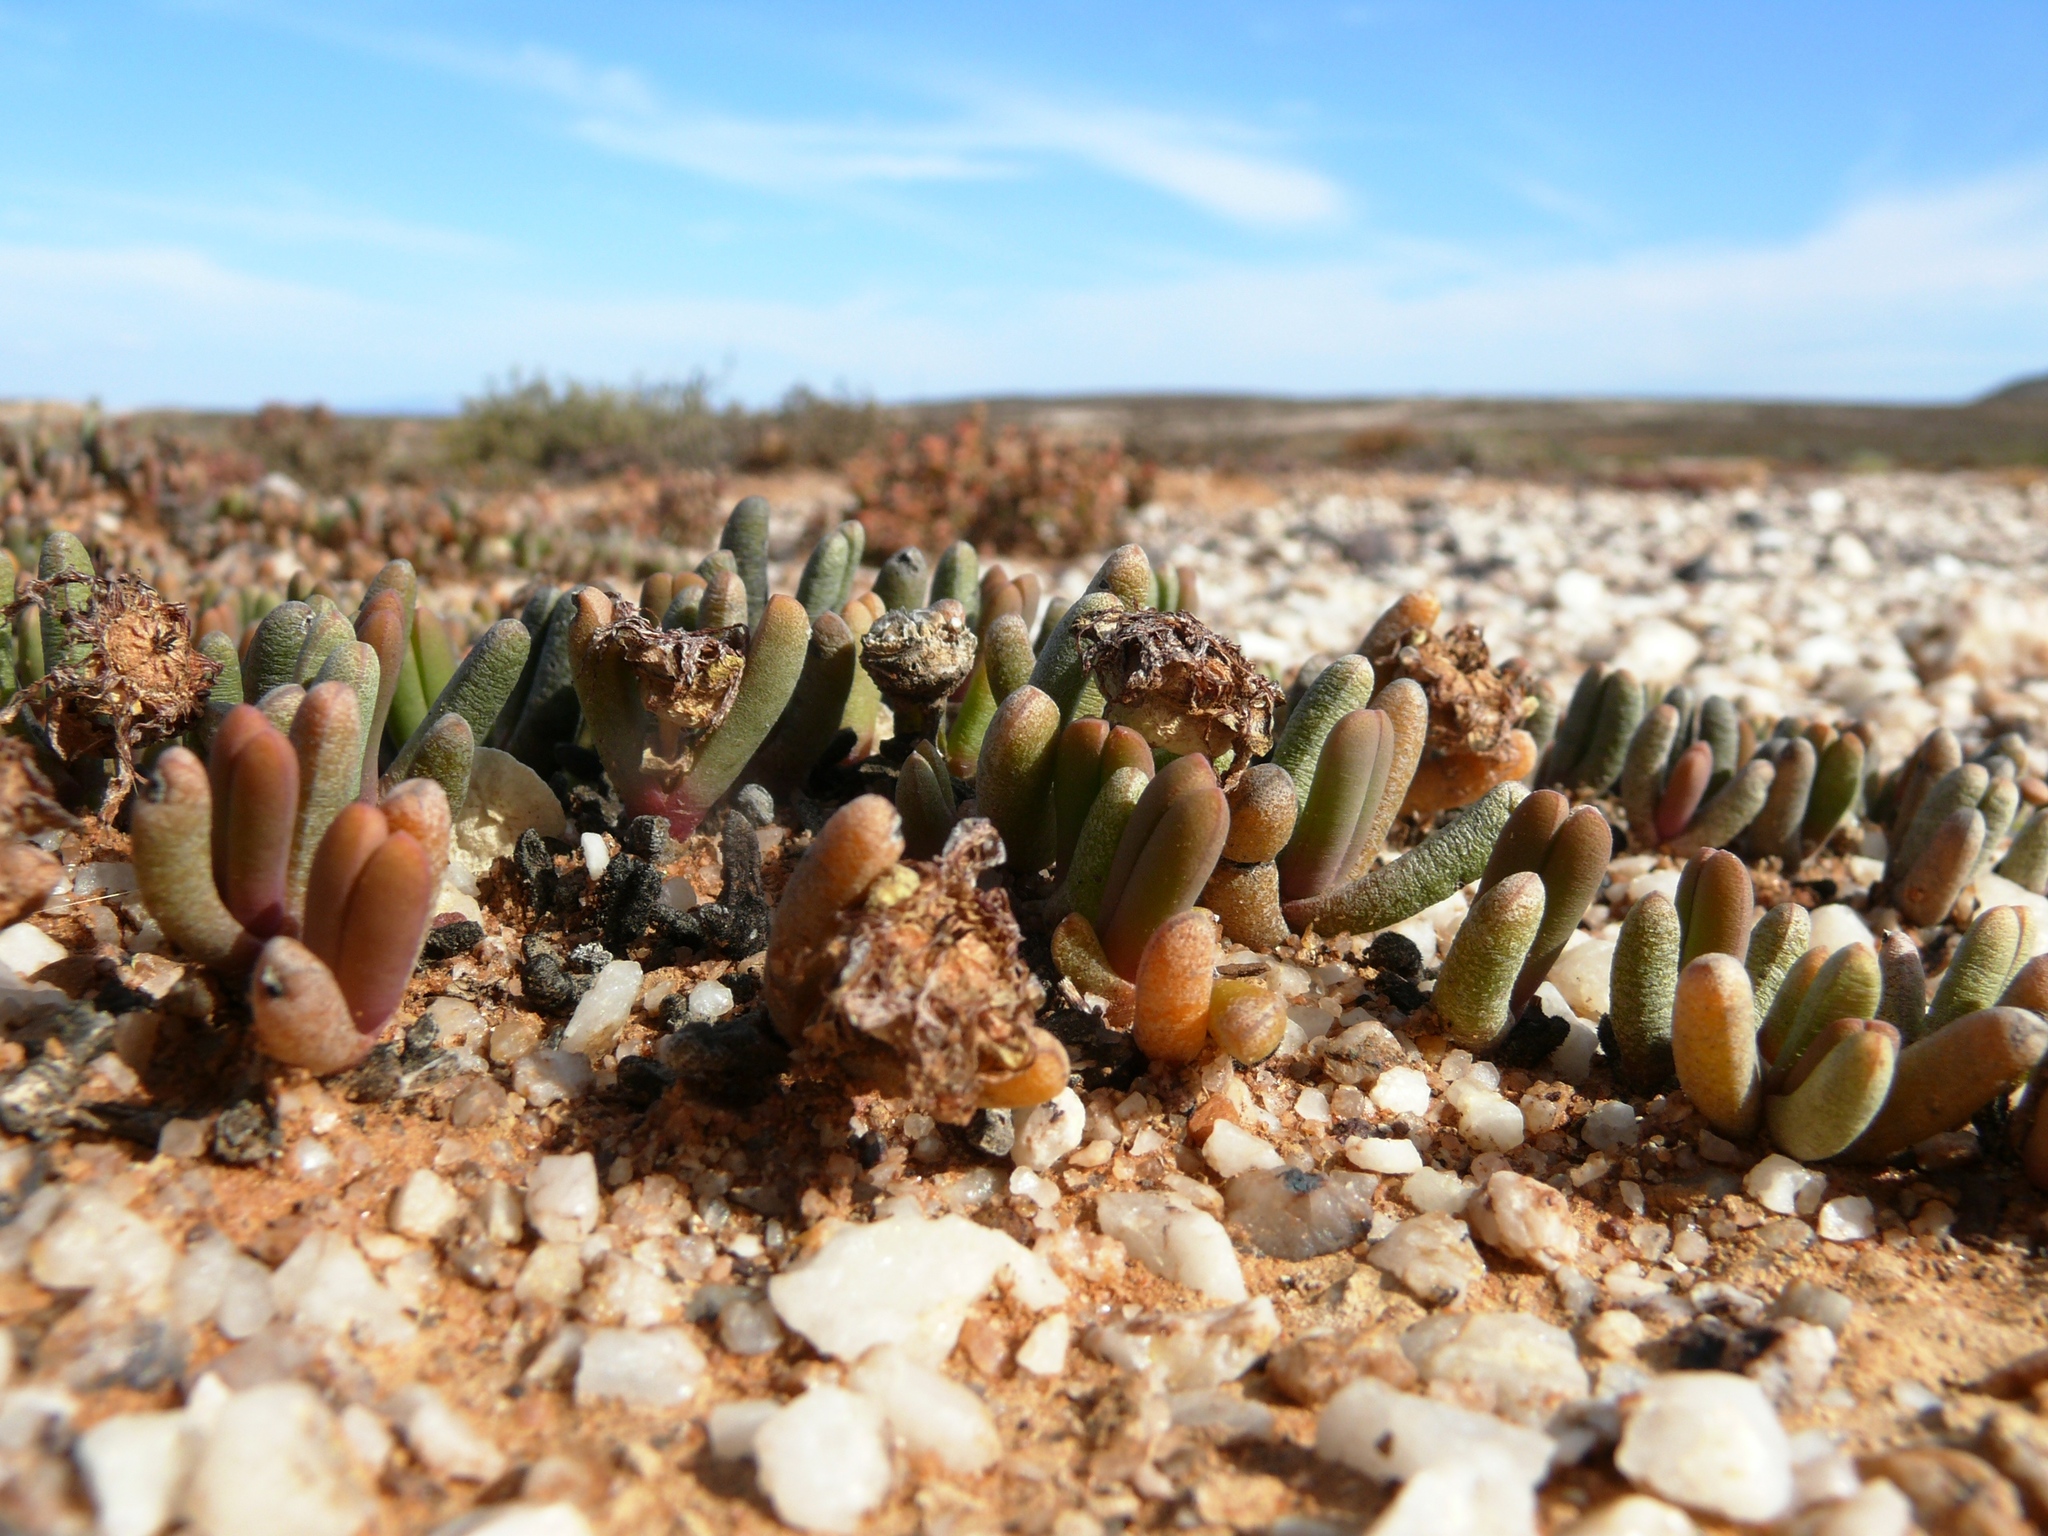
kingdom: Plantae
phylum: Tracheophyta
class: Magnoliopsida
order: Caryophyllales
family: Aizoaceae
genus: Cephalophyllum
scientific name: Cephalophyllum caespitosum
